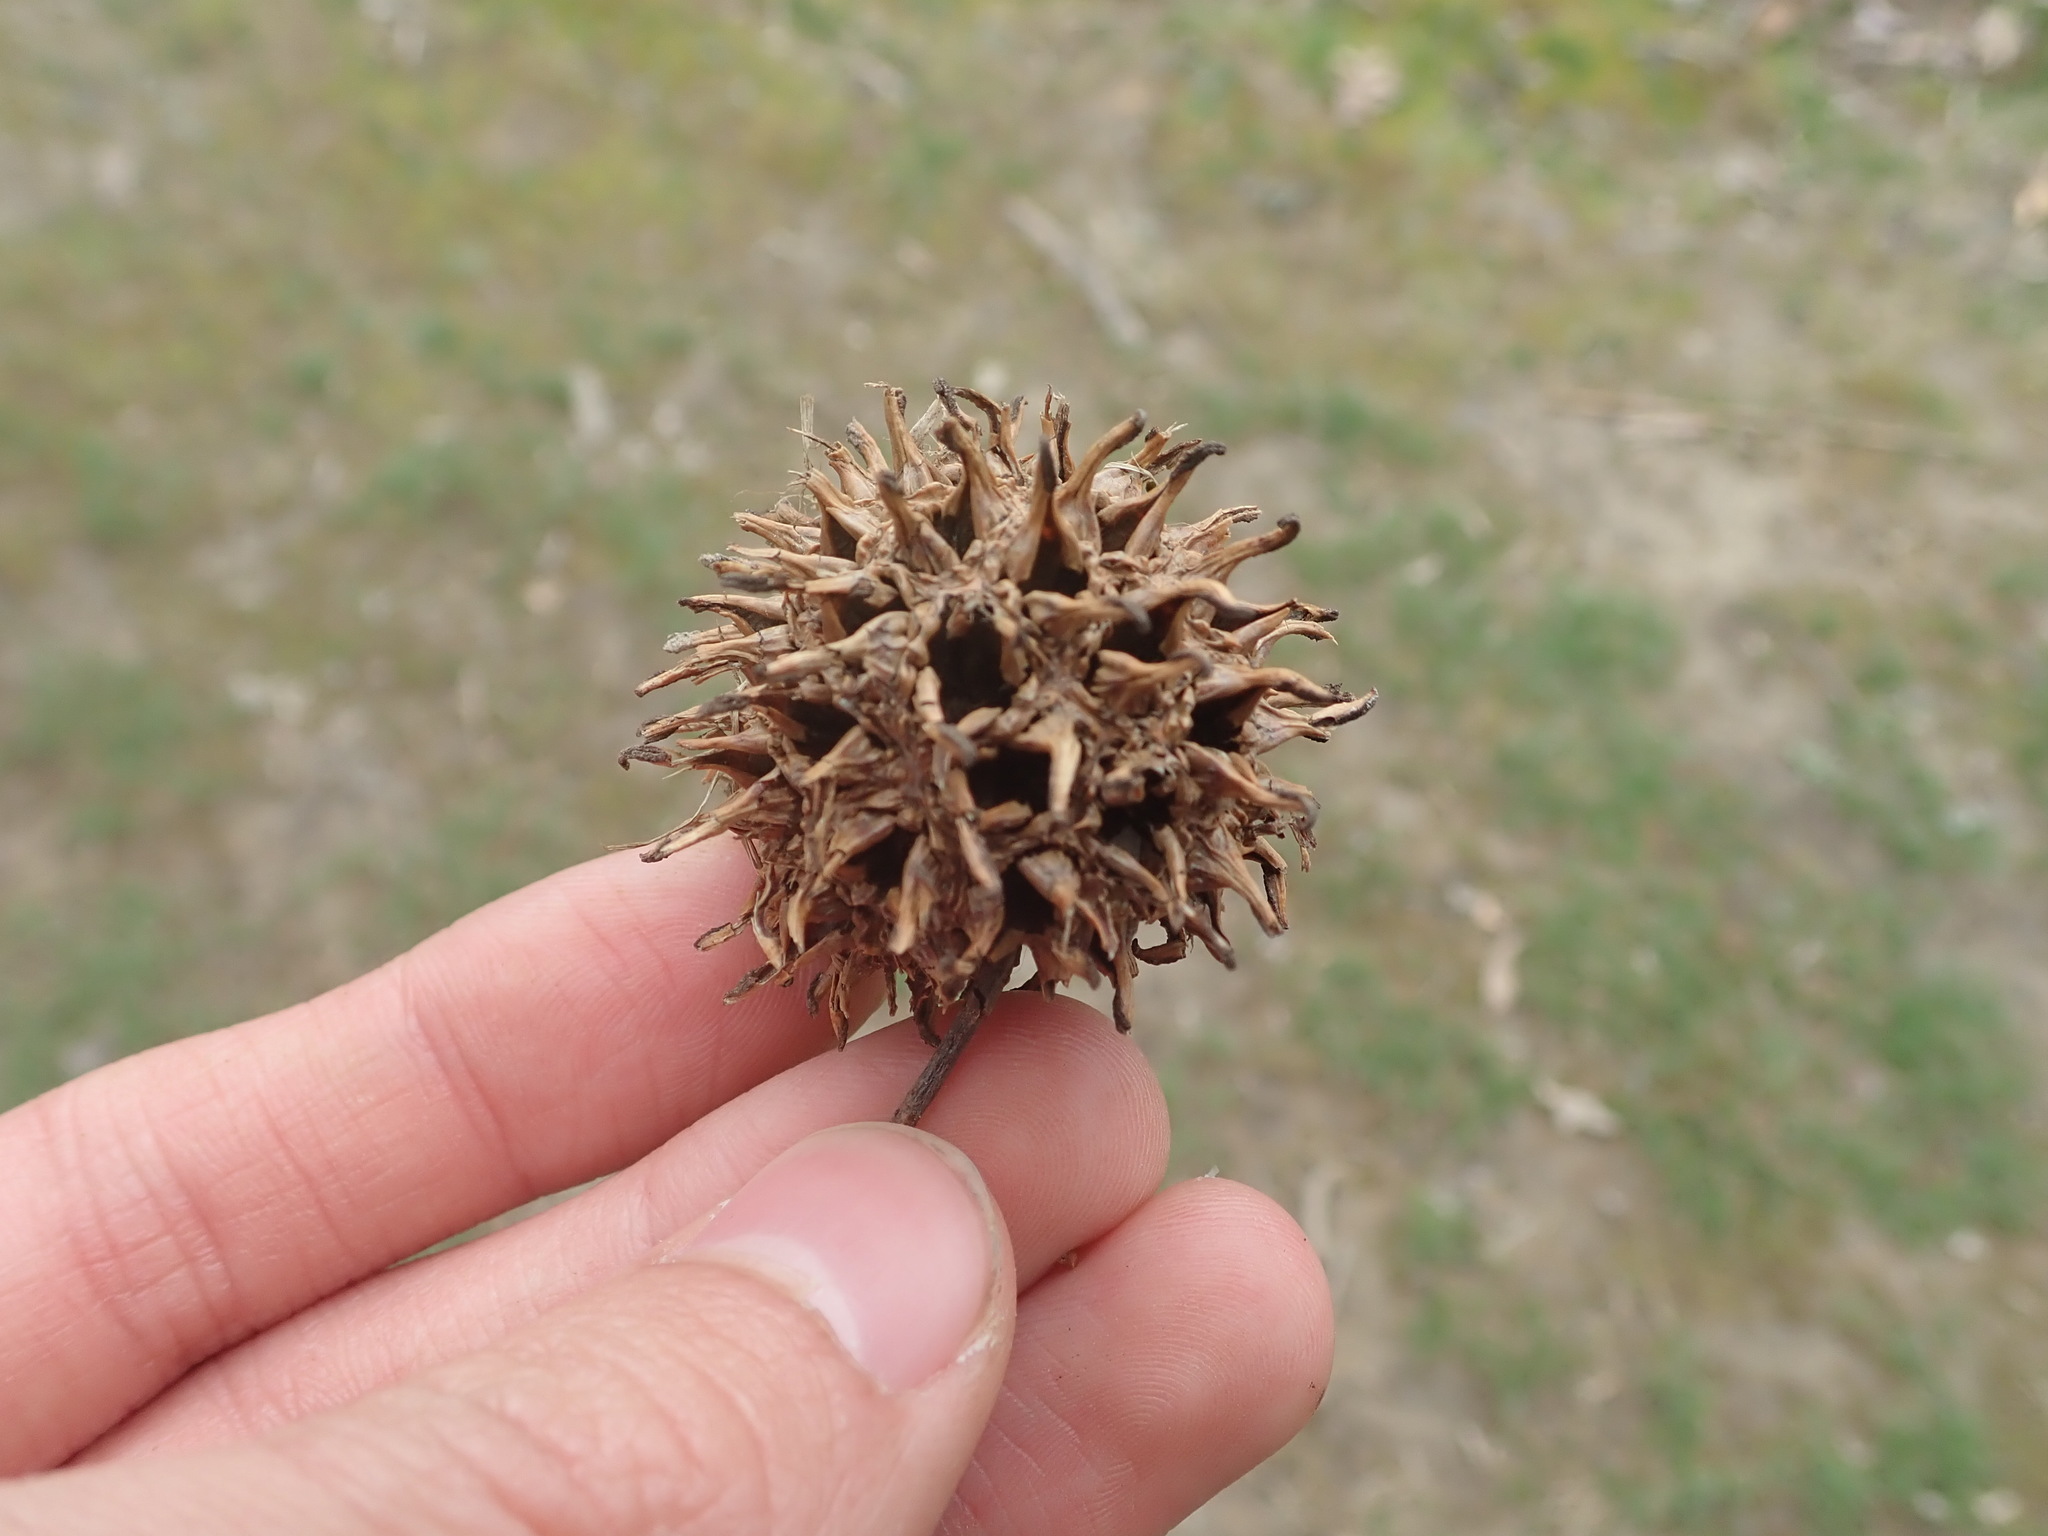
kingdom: Plantae
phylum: Tracheophyta
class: Magnoliopsida
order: Saxifragales
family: Altingiaceae
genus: Liquidambar
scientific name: Liquidambar styraciflua
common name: Sweet gum
